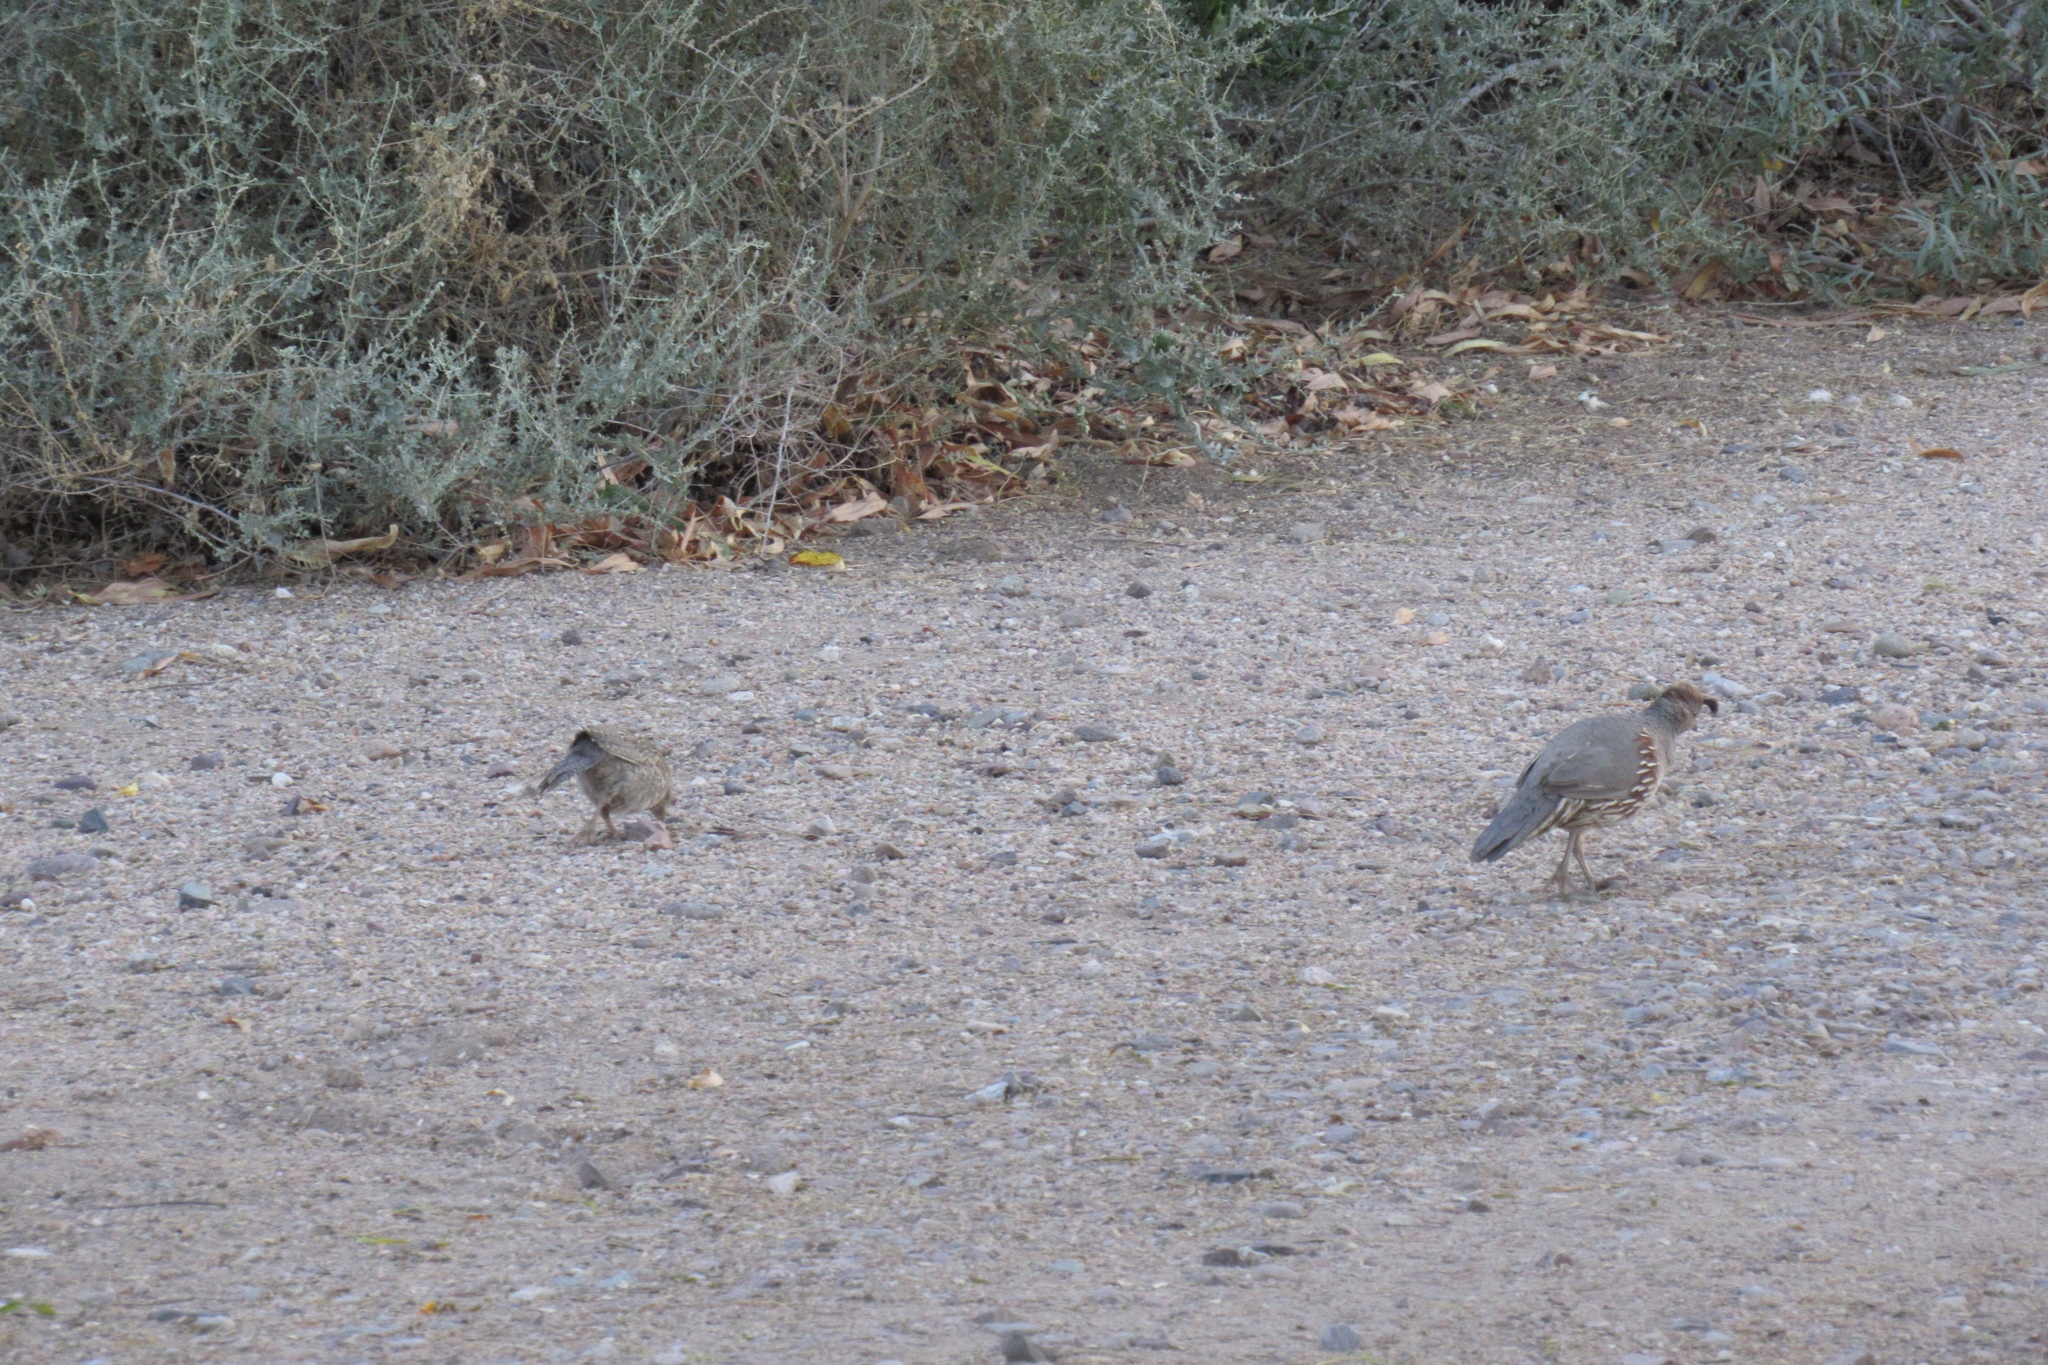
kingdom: Animalia
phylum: Chordata
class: Aves
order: Galliformes
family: Odontophoridae
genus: Callipepla
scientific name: Callipepla gambelii
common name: Gambel's quail
